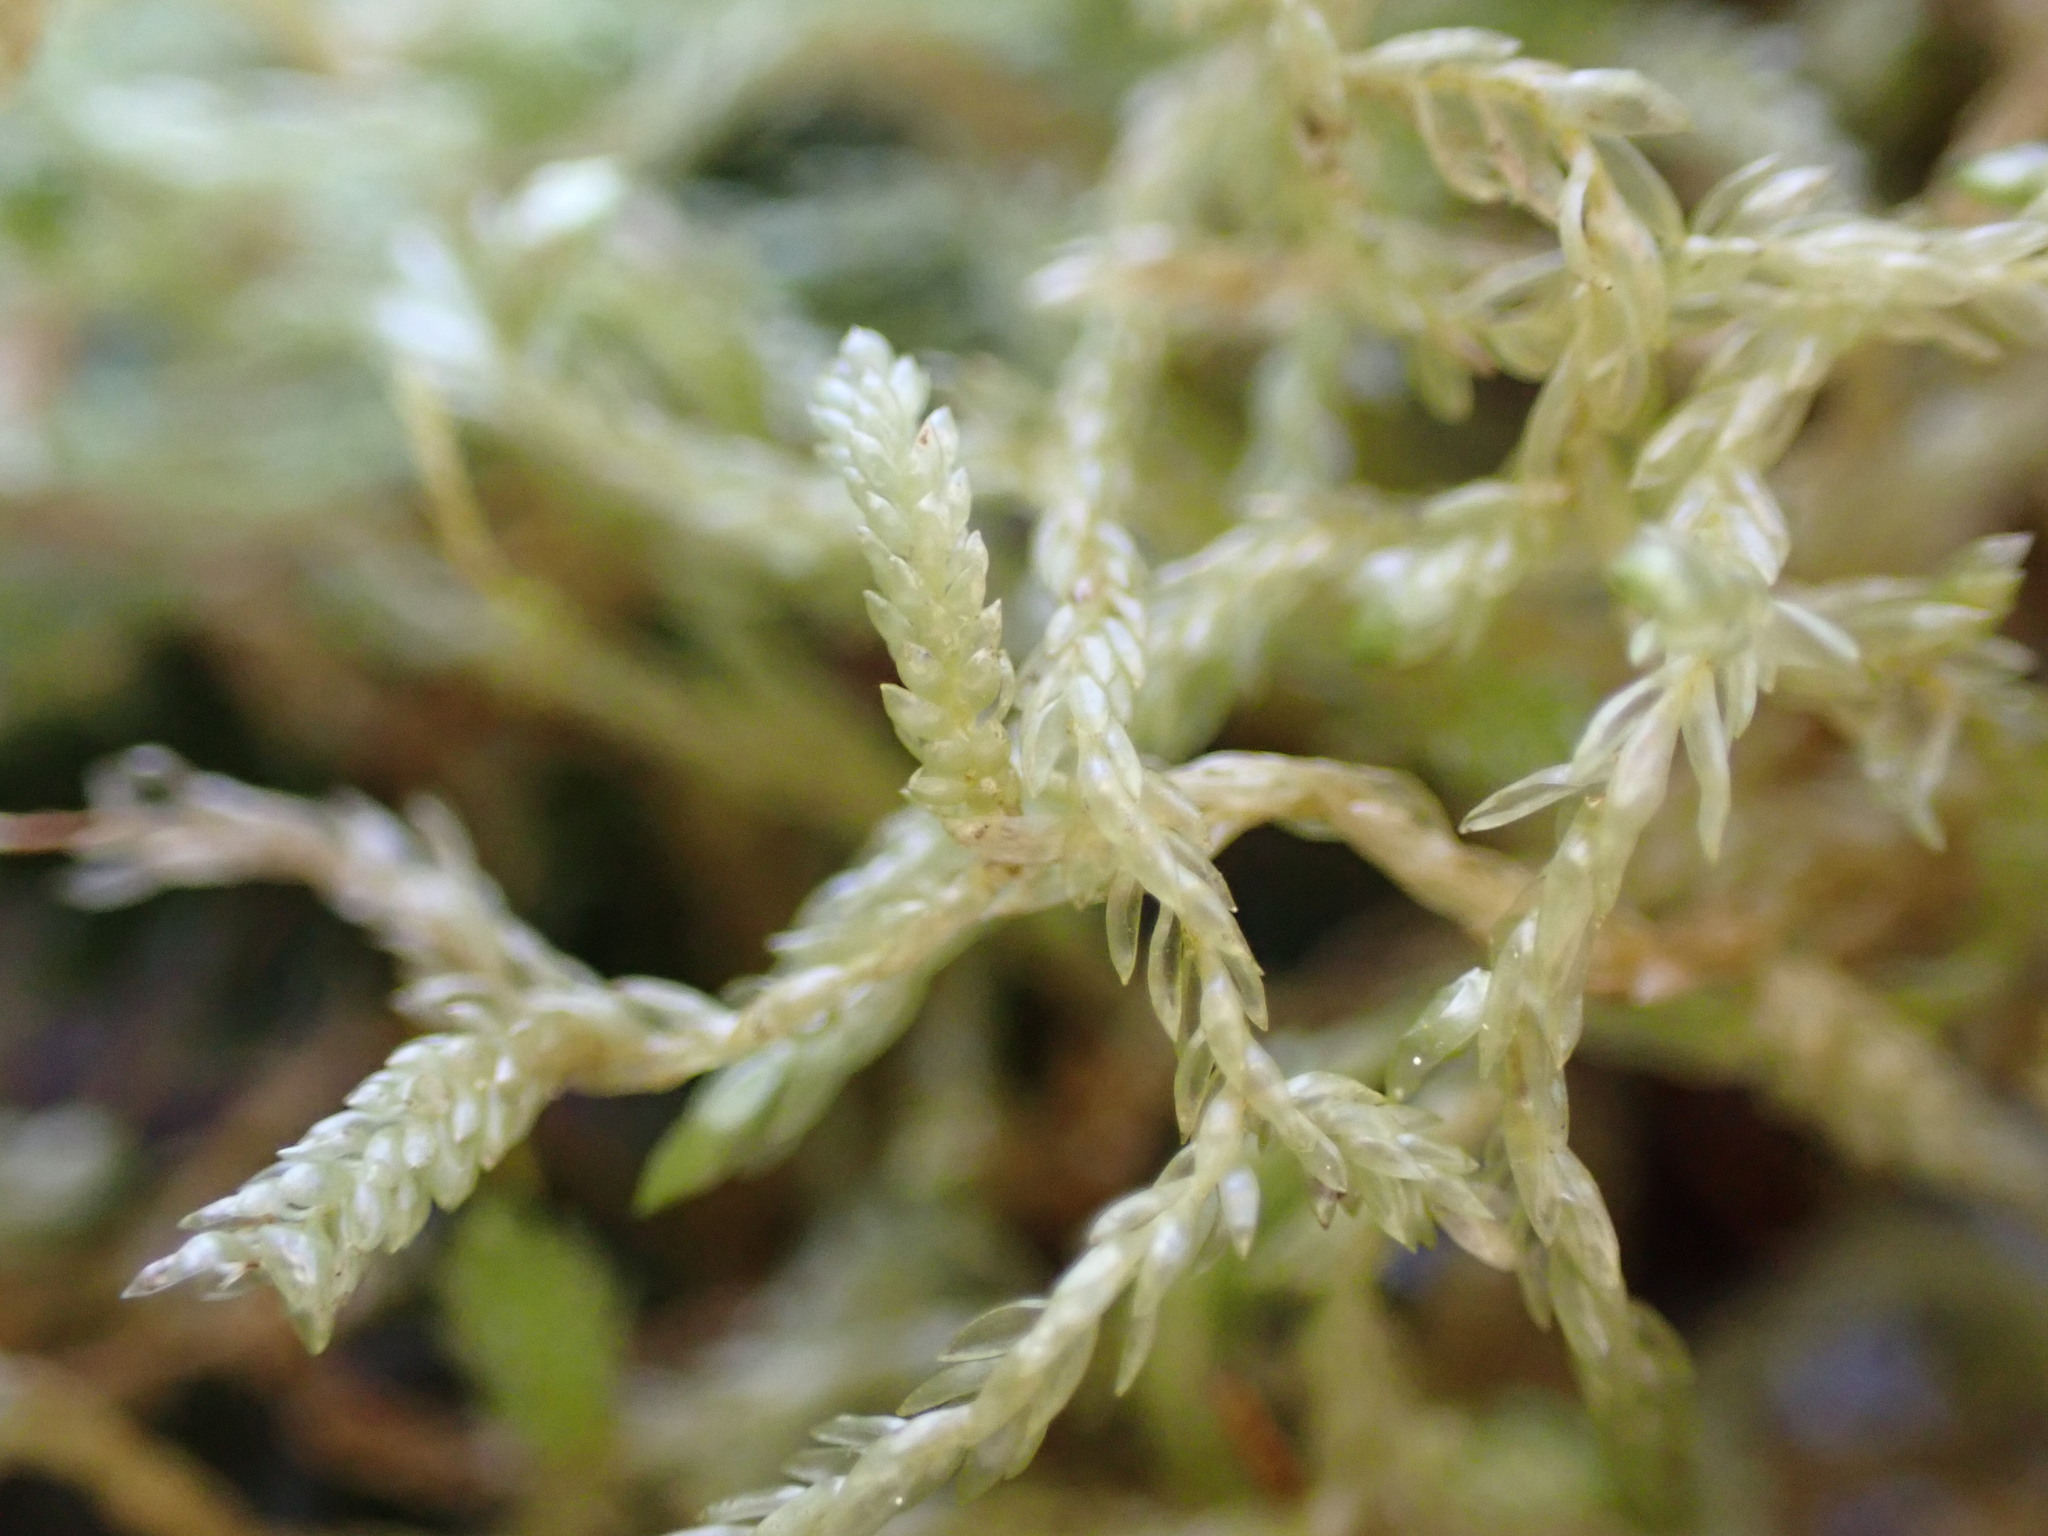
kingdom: Plantae
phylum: Bryophyta
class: Bryopsida
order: Hypnales
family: Lembophyllaceae
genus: Weymouthia
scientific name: Weymouthia mollis
